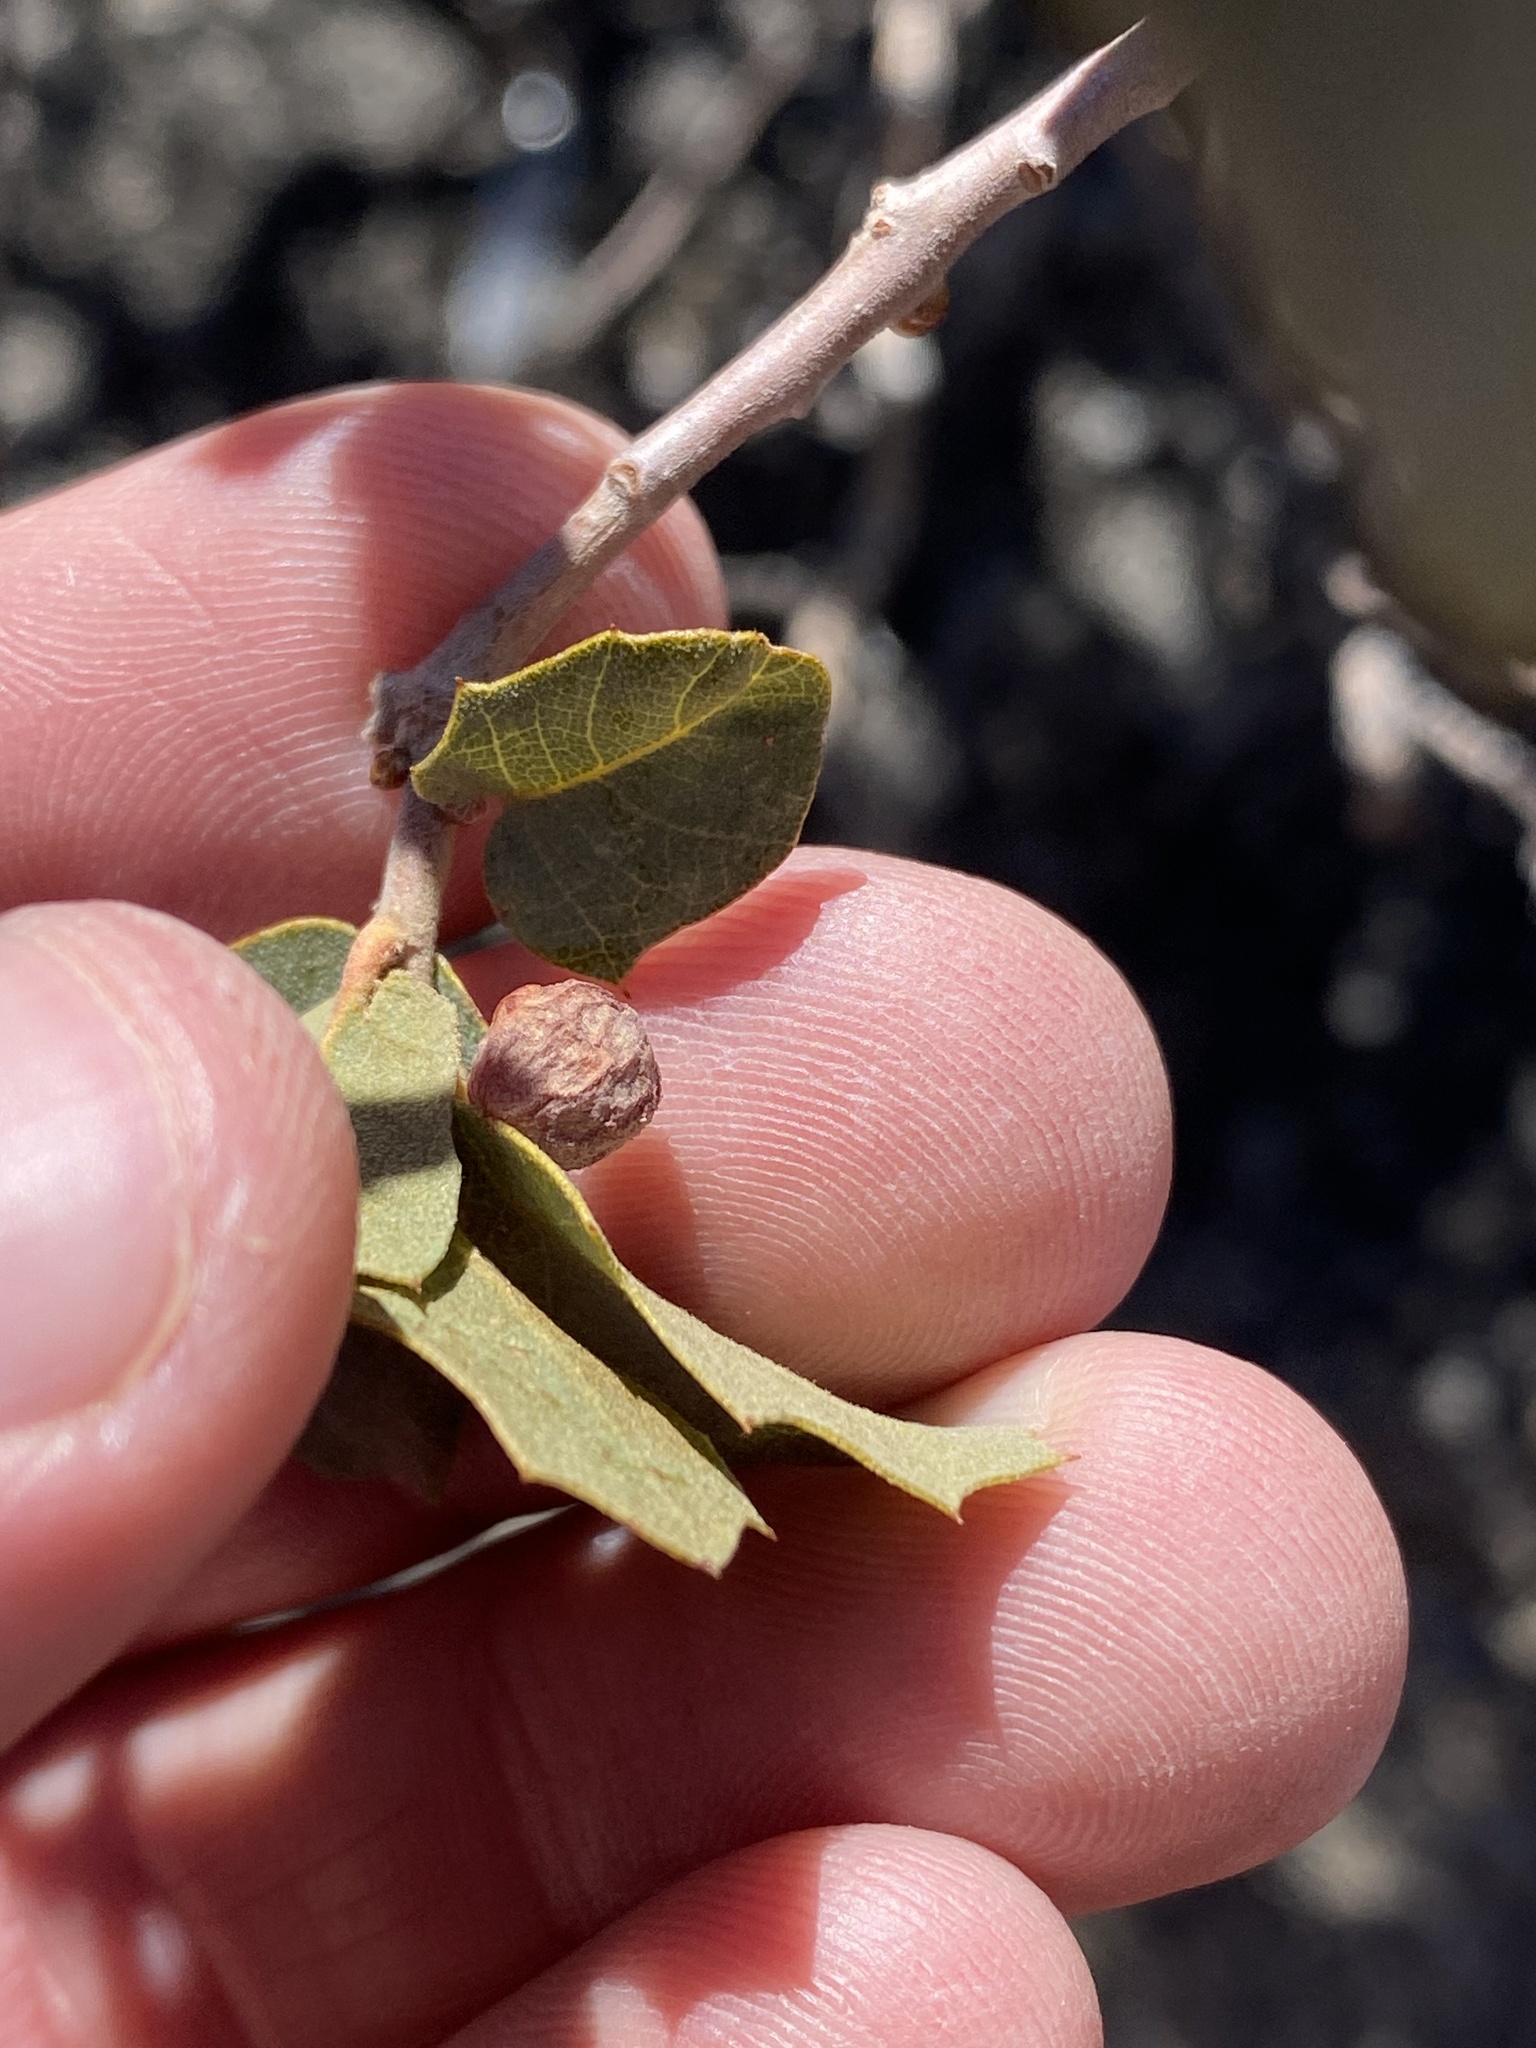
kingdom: Animalia
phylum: Arthropoda
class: Insecta
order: Hymenoptera
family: Cynipidae
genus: Atrusca
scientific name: Atrusca
